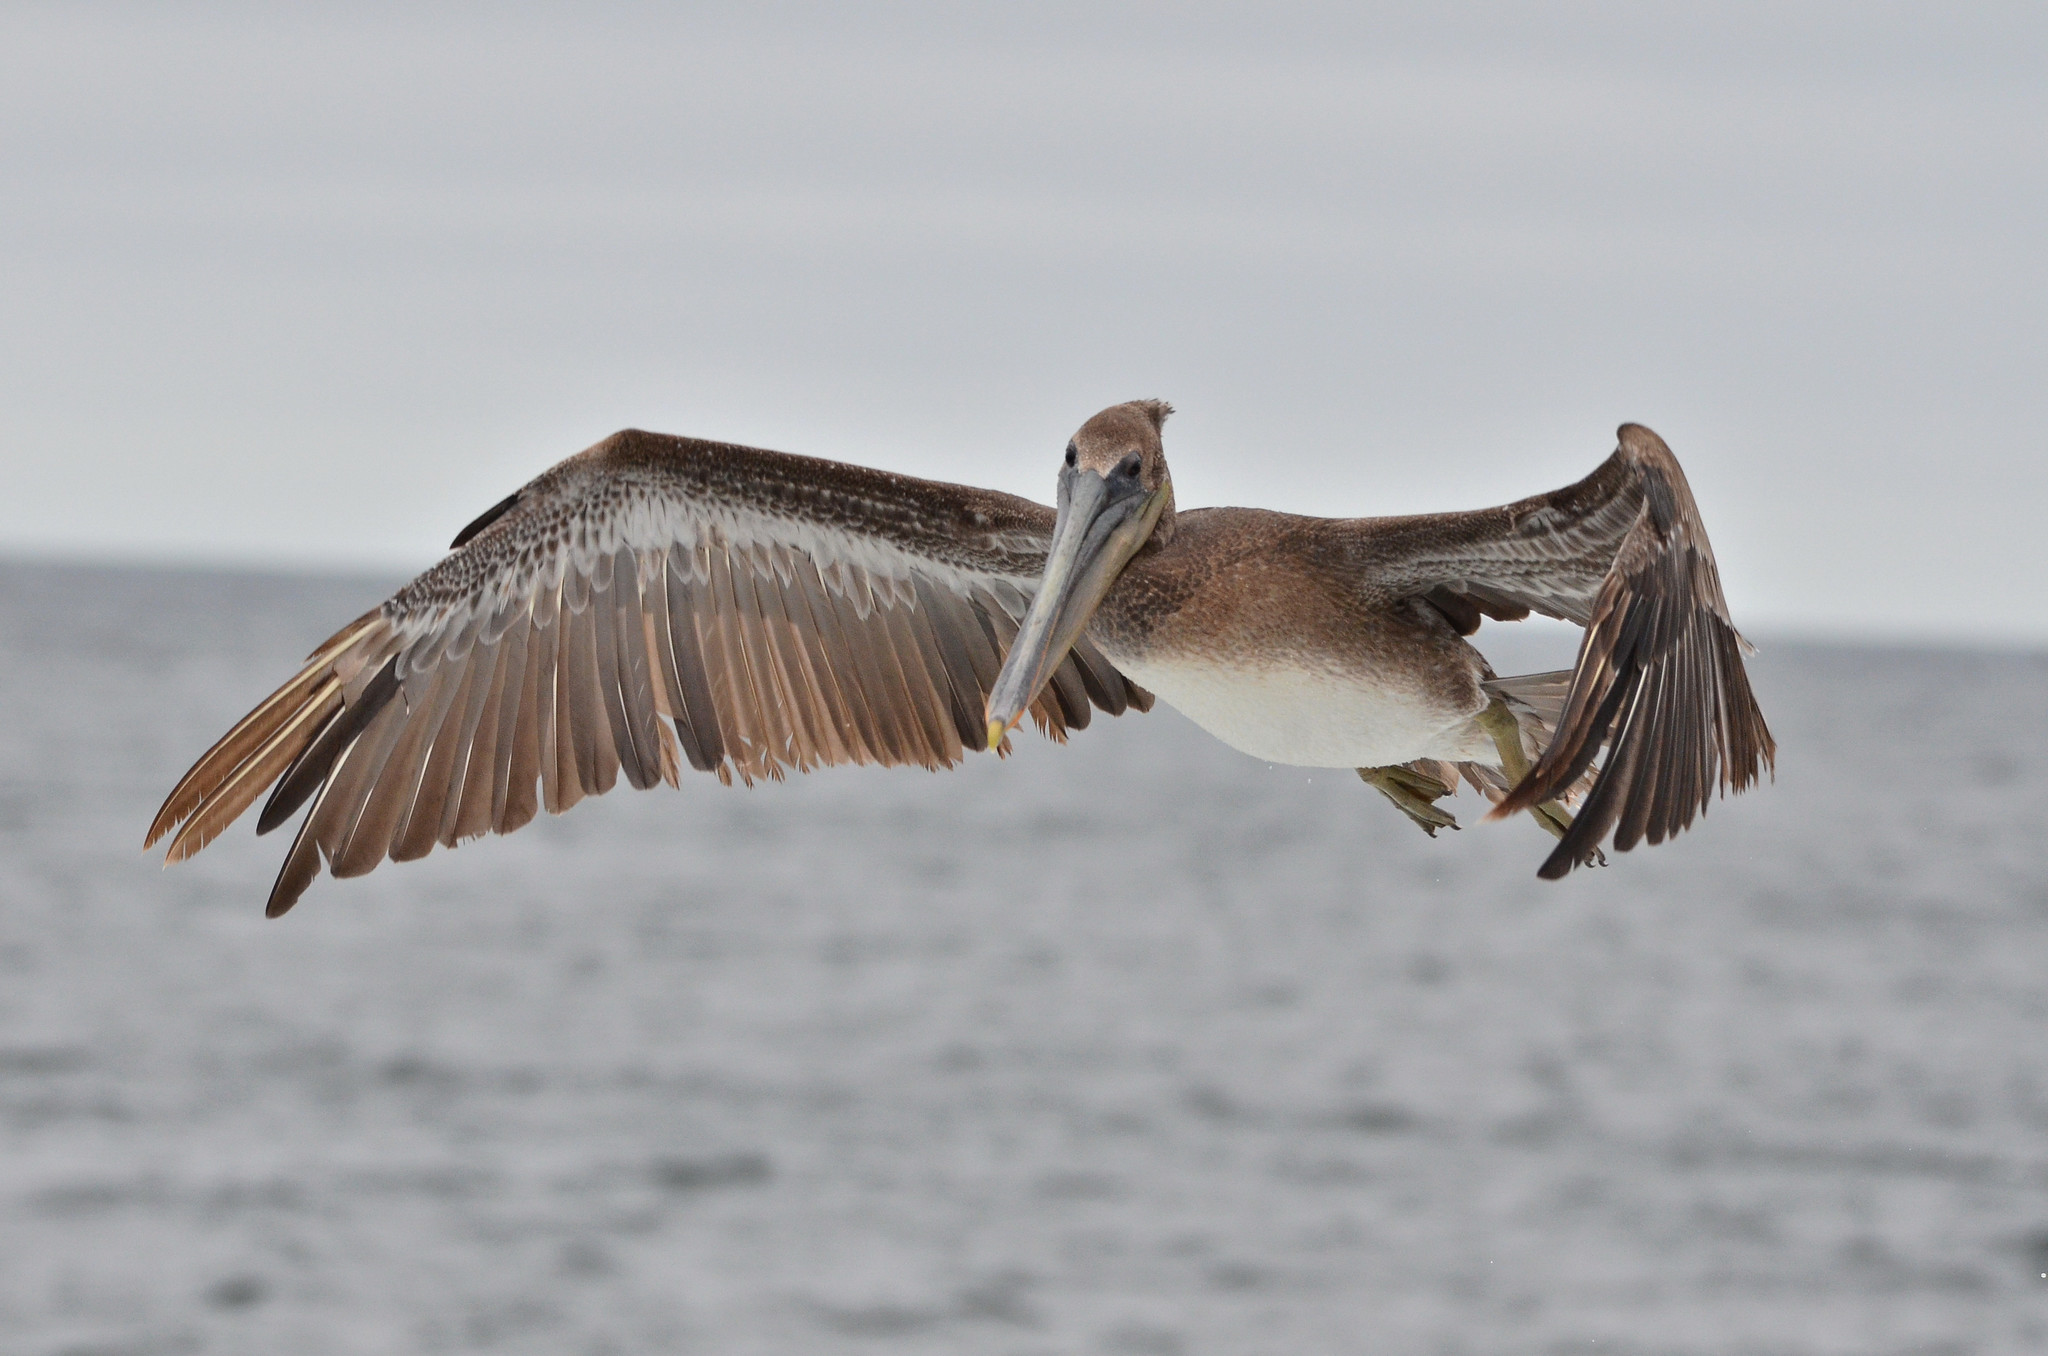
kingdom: Animalia
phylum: Chordata
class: Aves
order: Pelecaniformes
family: Pelecanidae
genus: Pelecanus
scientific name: Pelecanus occidentalis
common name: Brown pelican
